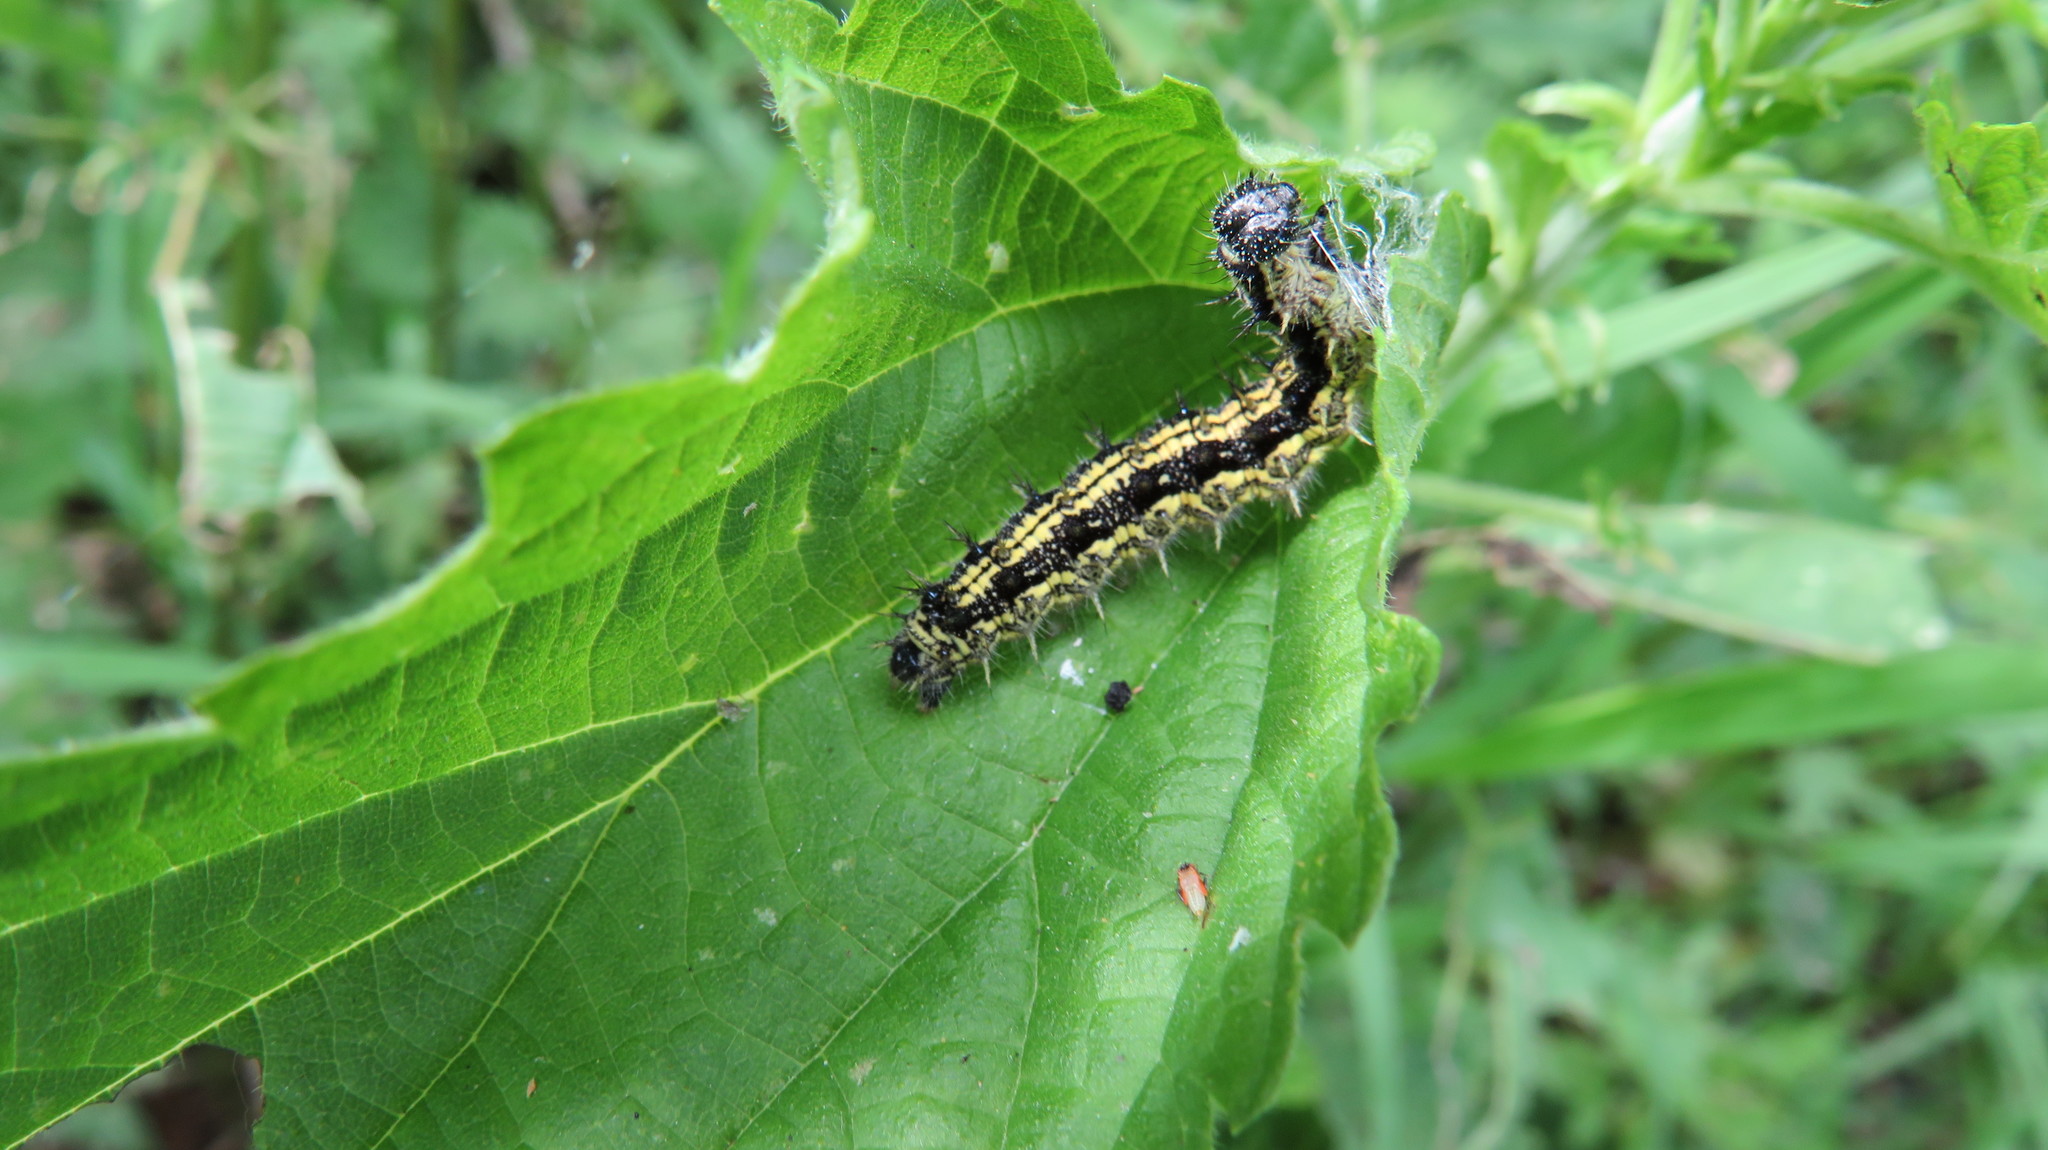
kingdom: Animalia
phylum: Arthropoda
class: Insecta
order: Lepidoptera
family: Nymphalidae
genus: Aglais
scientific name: Aglais urticae
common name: Small tortoiseshell
